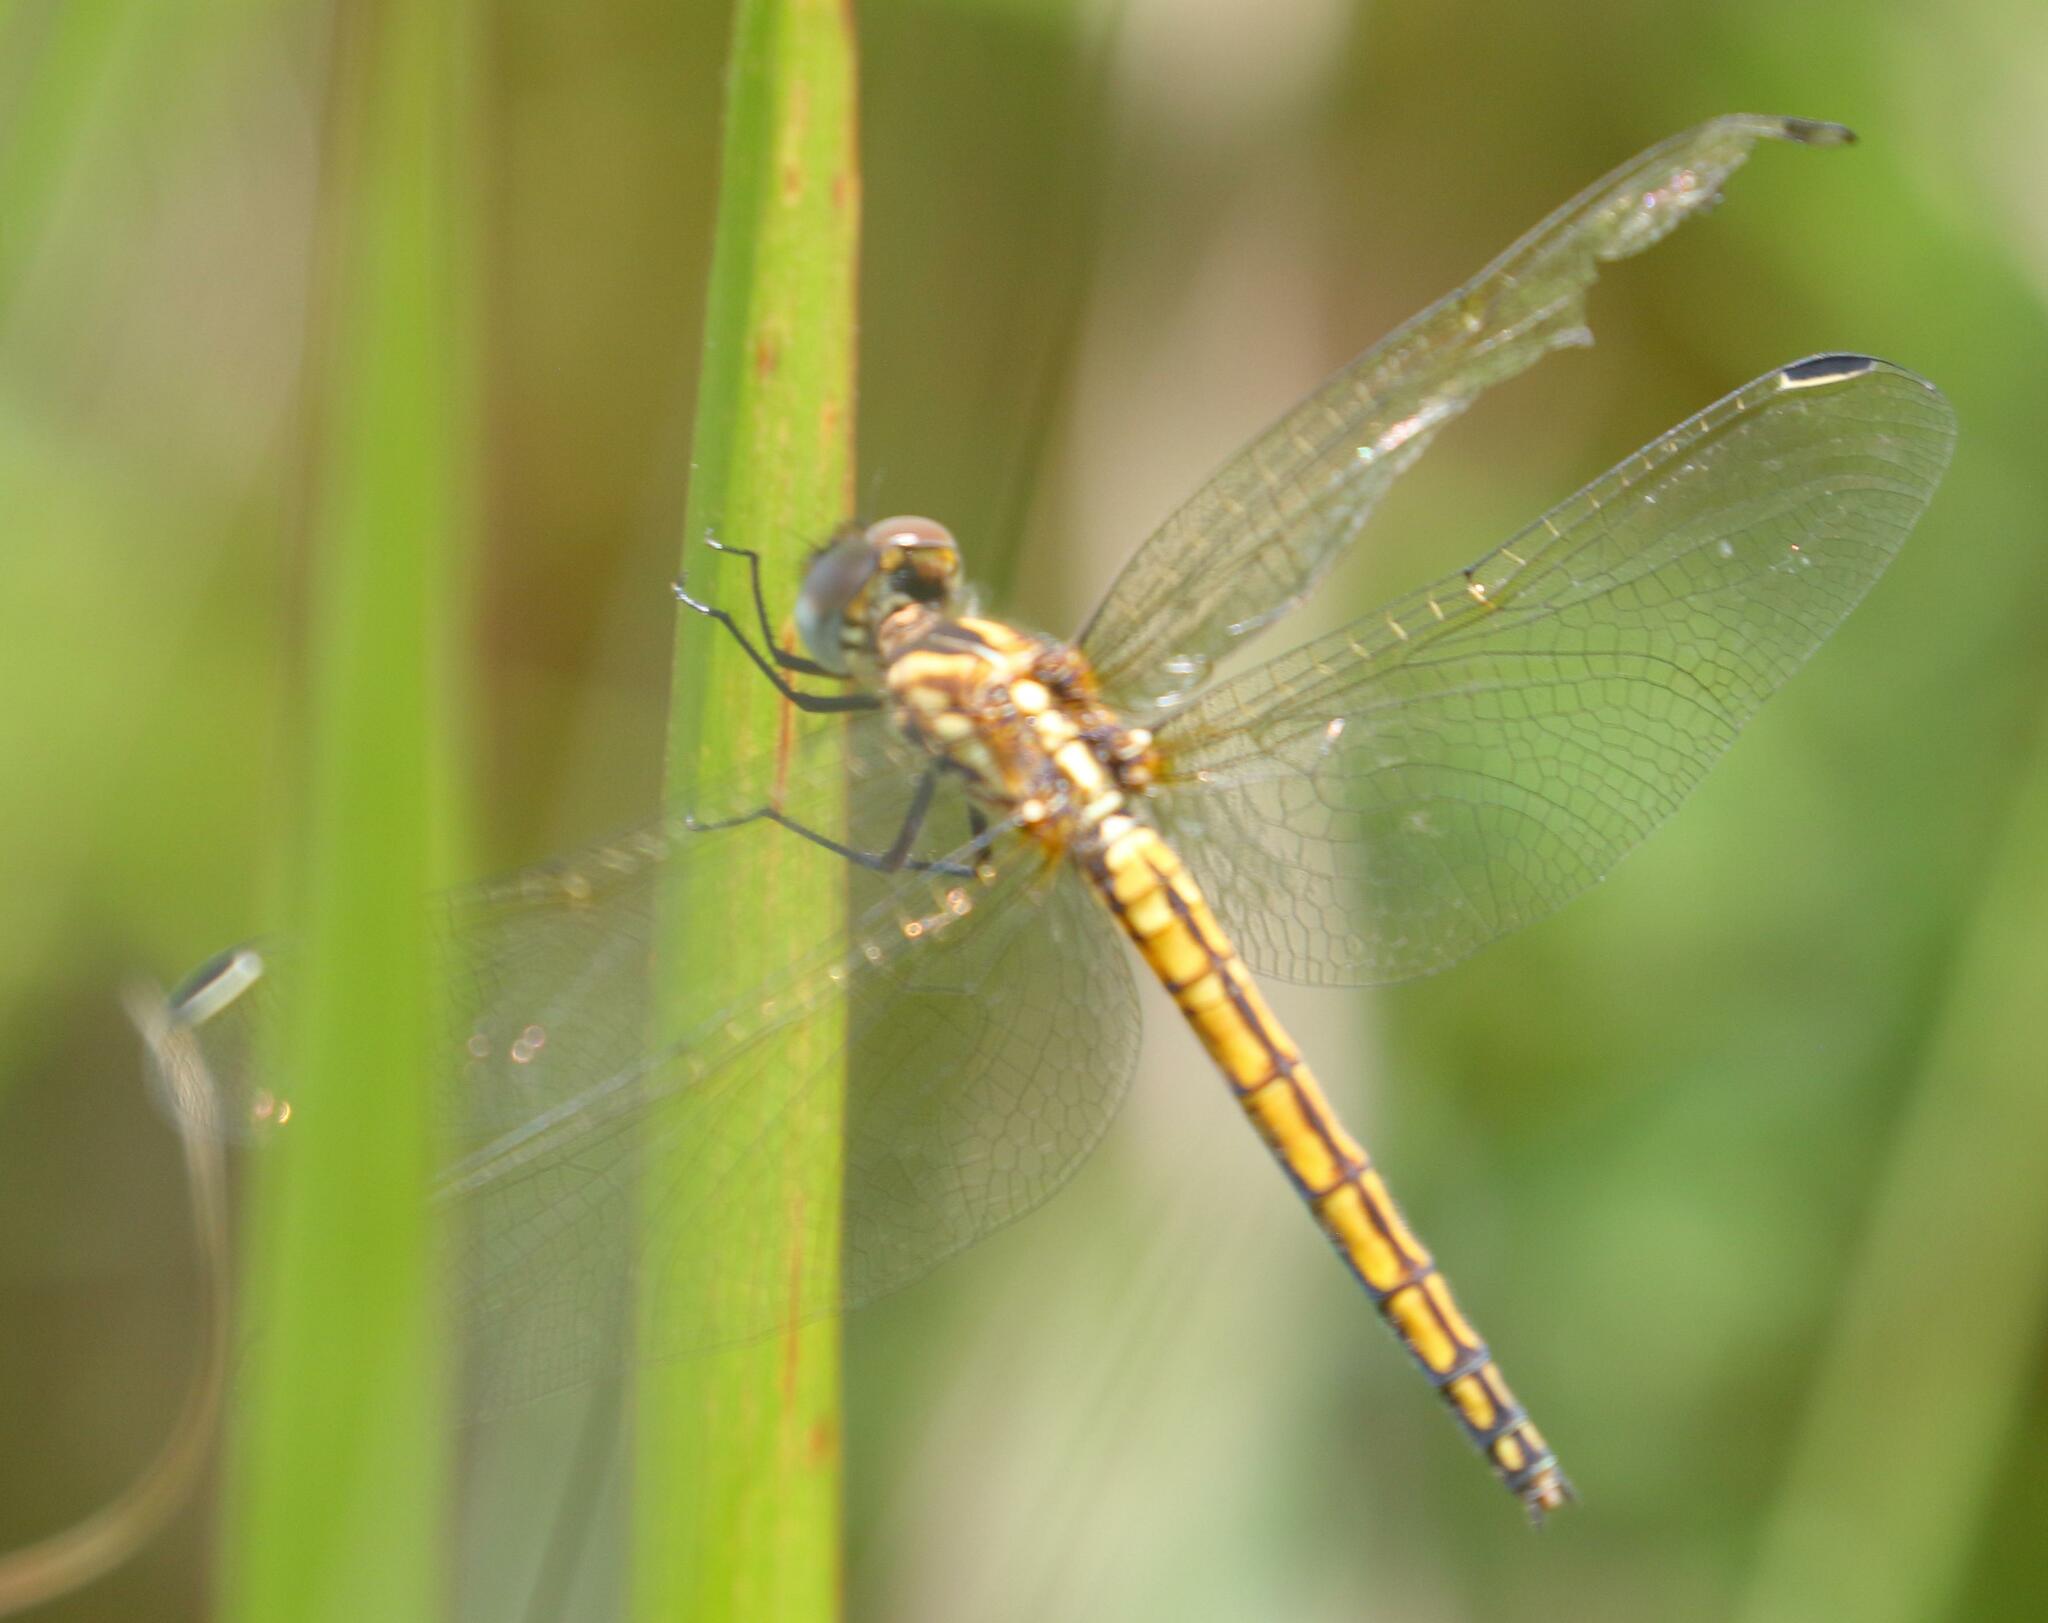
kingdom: Animalia
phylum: Arthropoda
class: Insecta
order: Odonata
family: Libellulidae
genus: Trithemis
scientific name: Trithemis furva
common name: Dark dropwing
